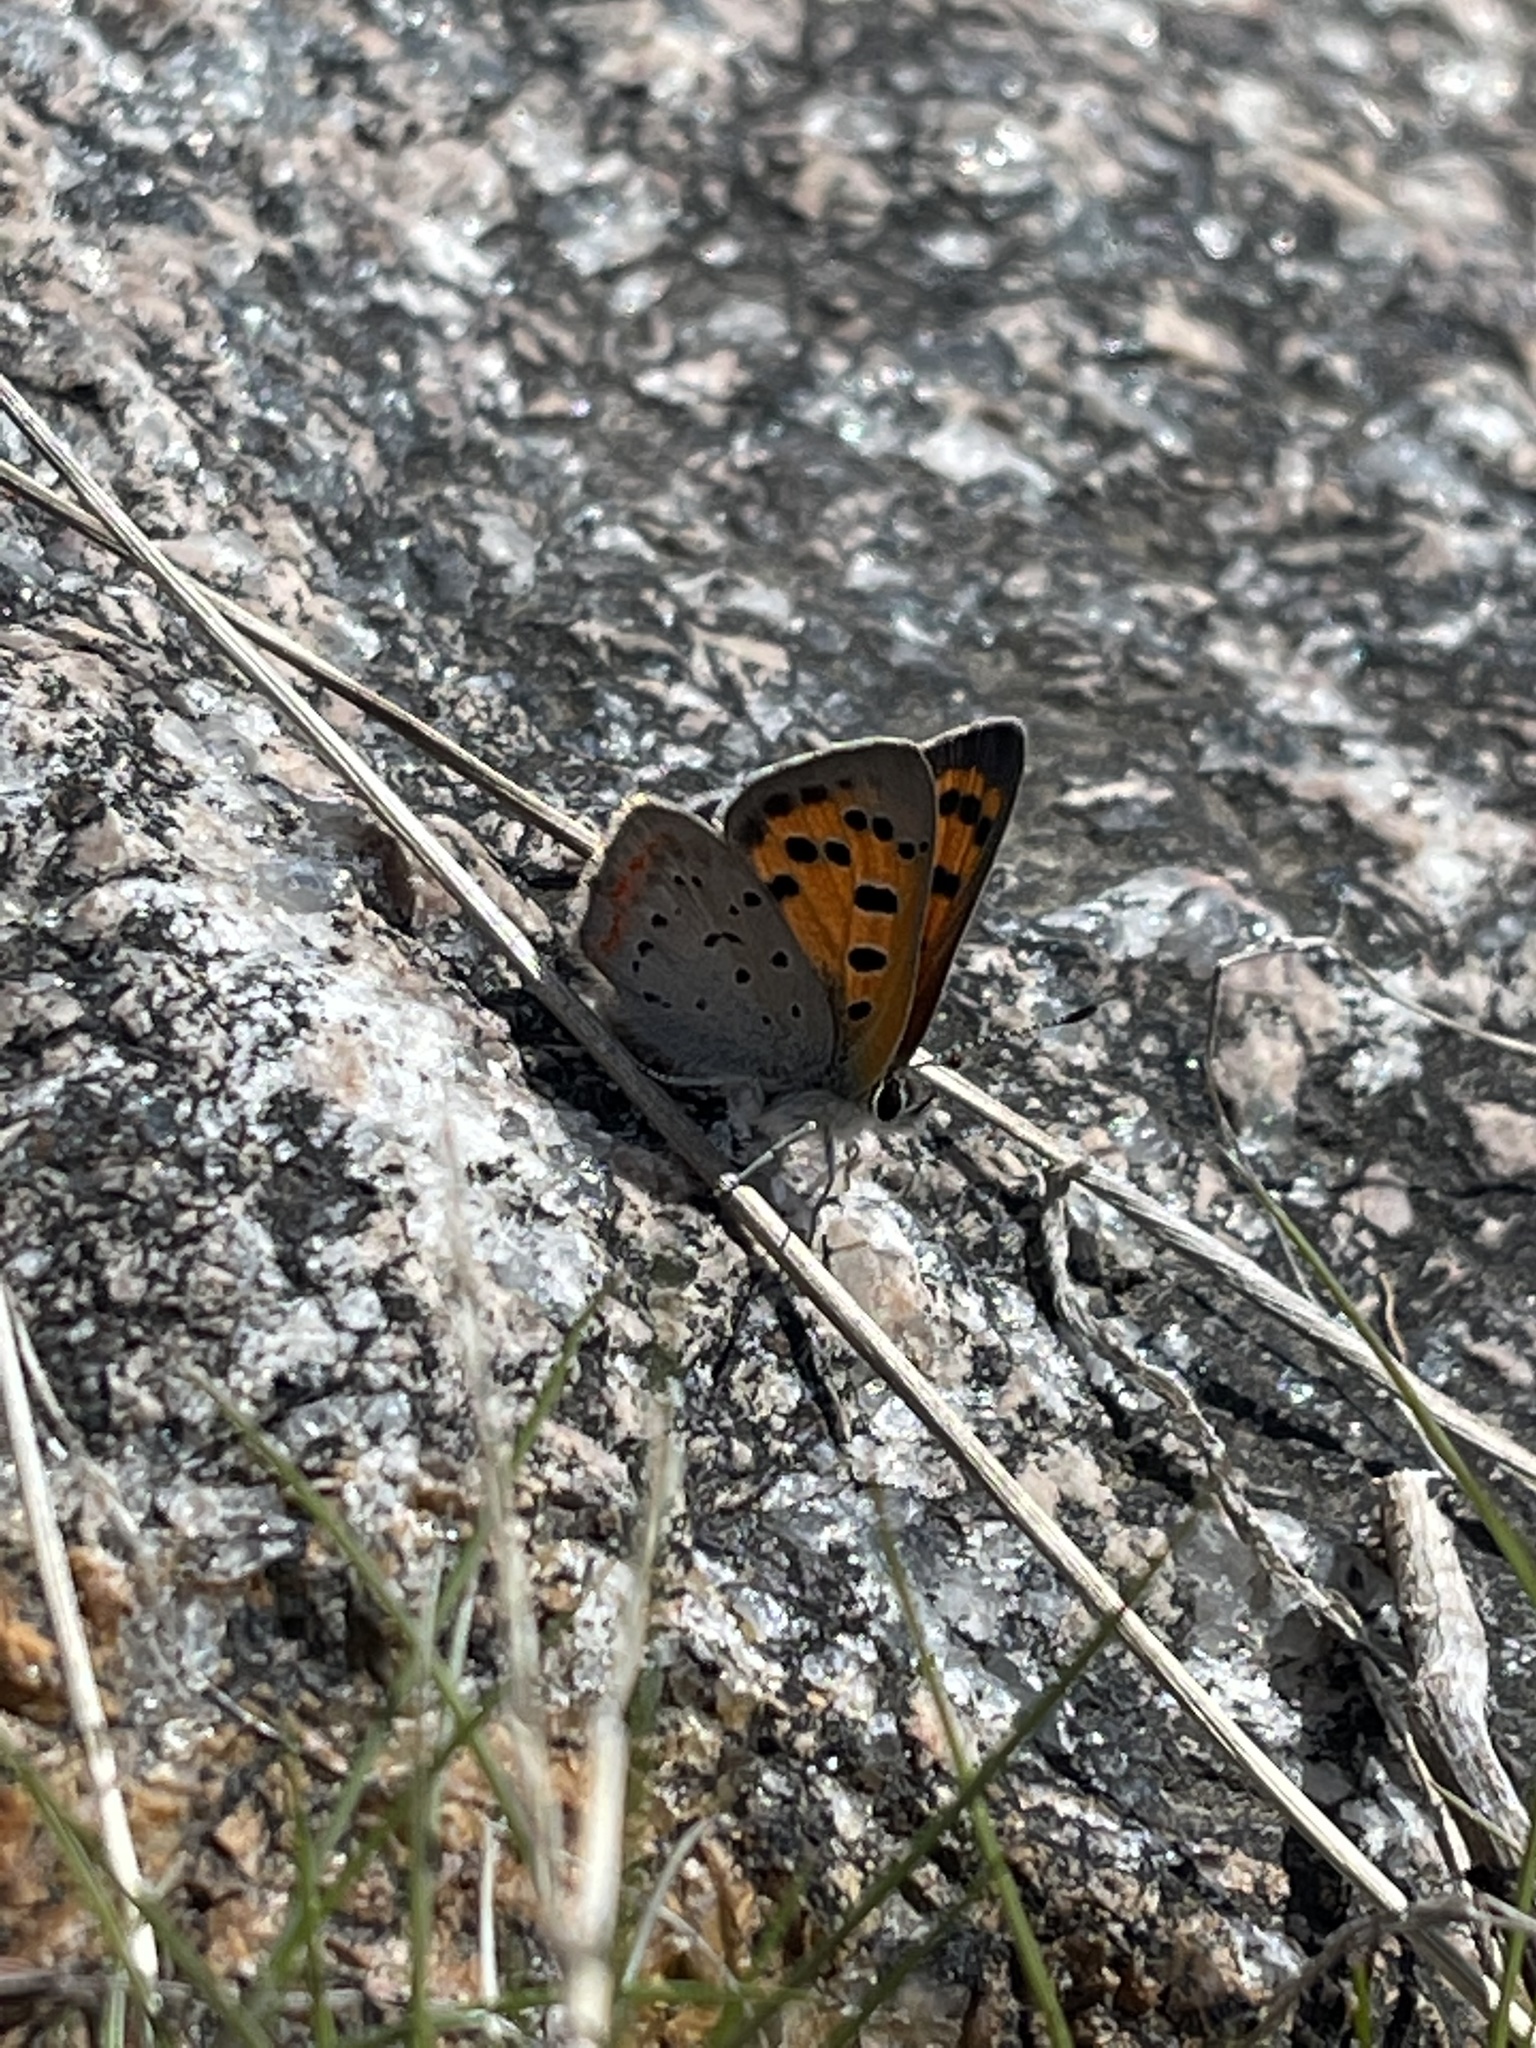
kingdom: Animalia
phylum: Arthropoda
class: Insecta
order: Lepidoptera
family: Lycaenidae
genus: Lycaena
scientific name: Lycaena hypophlaeas
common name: American copper
